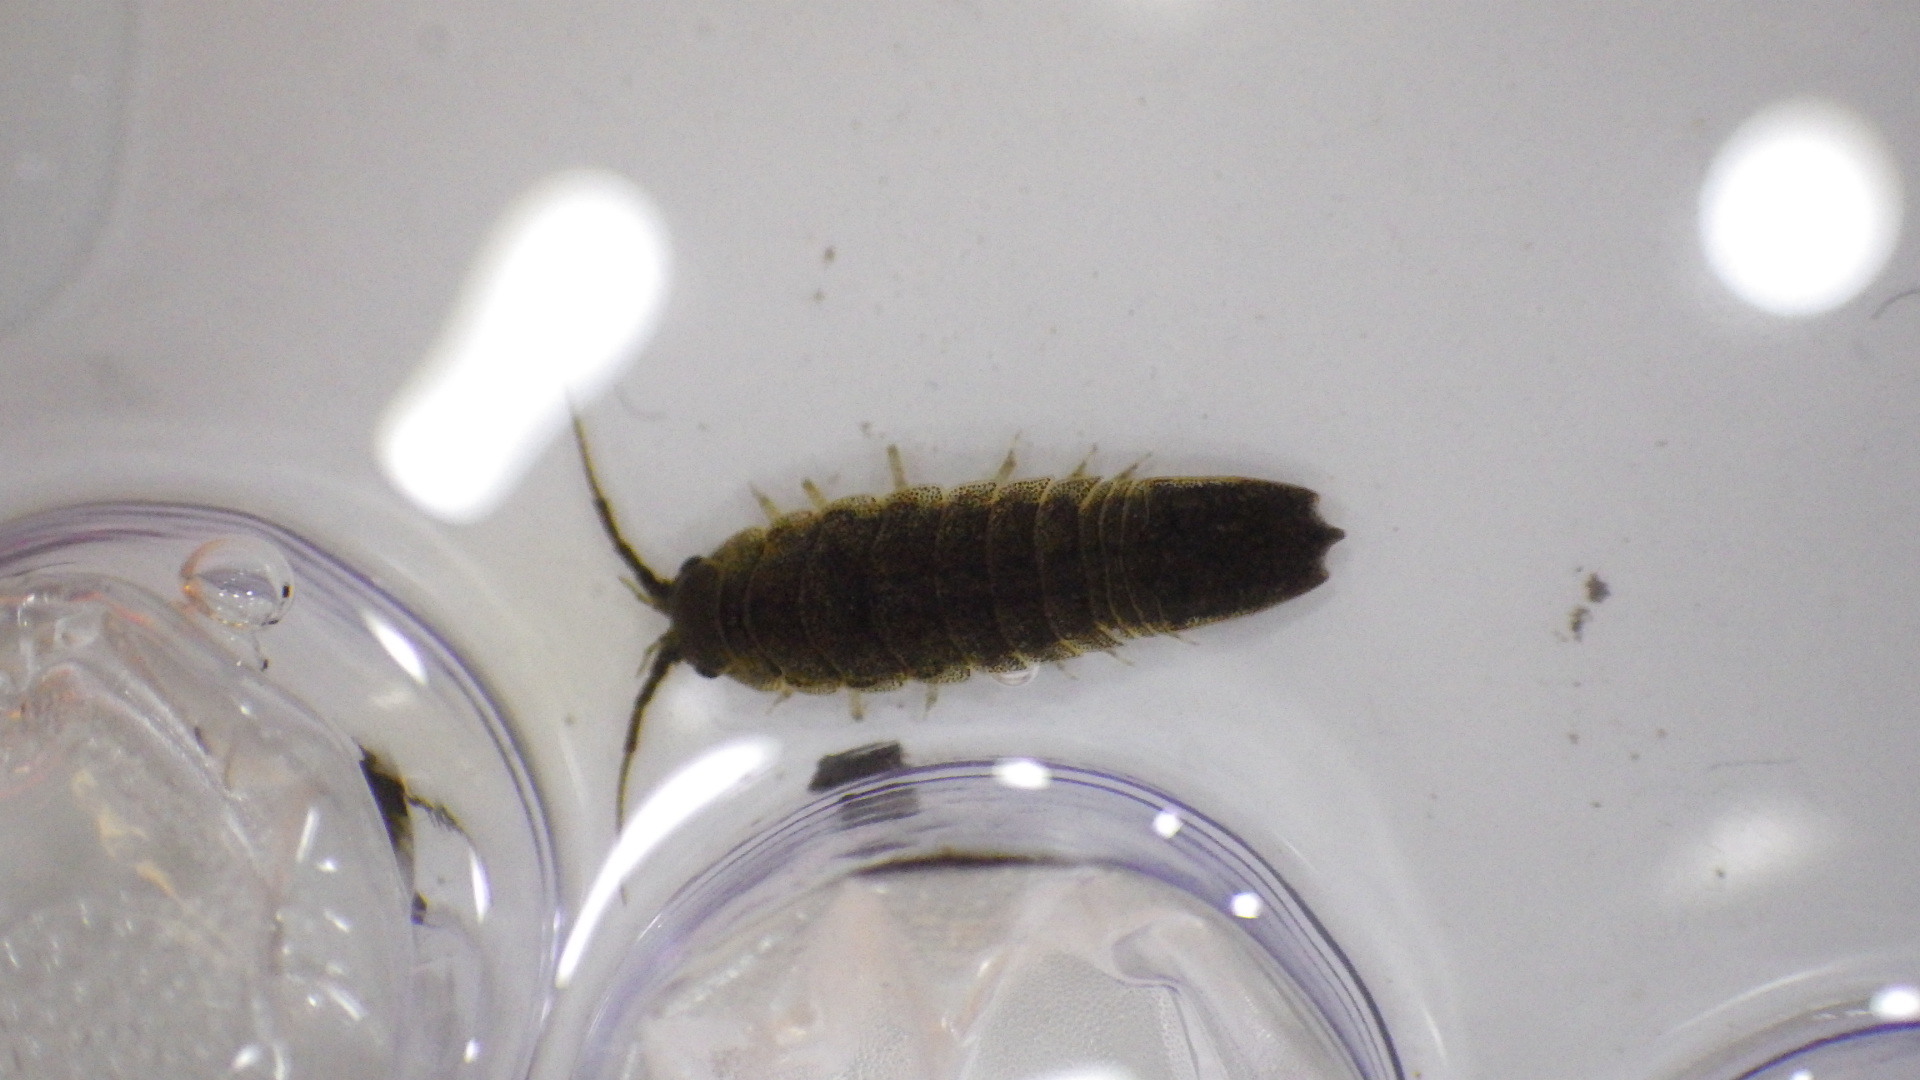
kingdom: Animalia
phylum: Arthropoda
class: Malacostraca
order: Isopoda
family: Idoteidae
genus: Idotea
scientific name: Idotea balthica
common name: Baltic isopod
